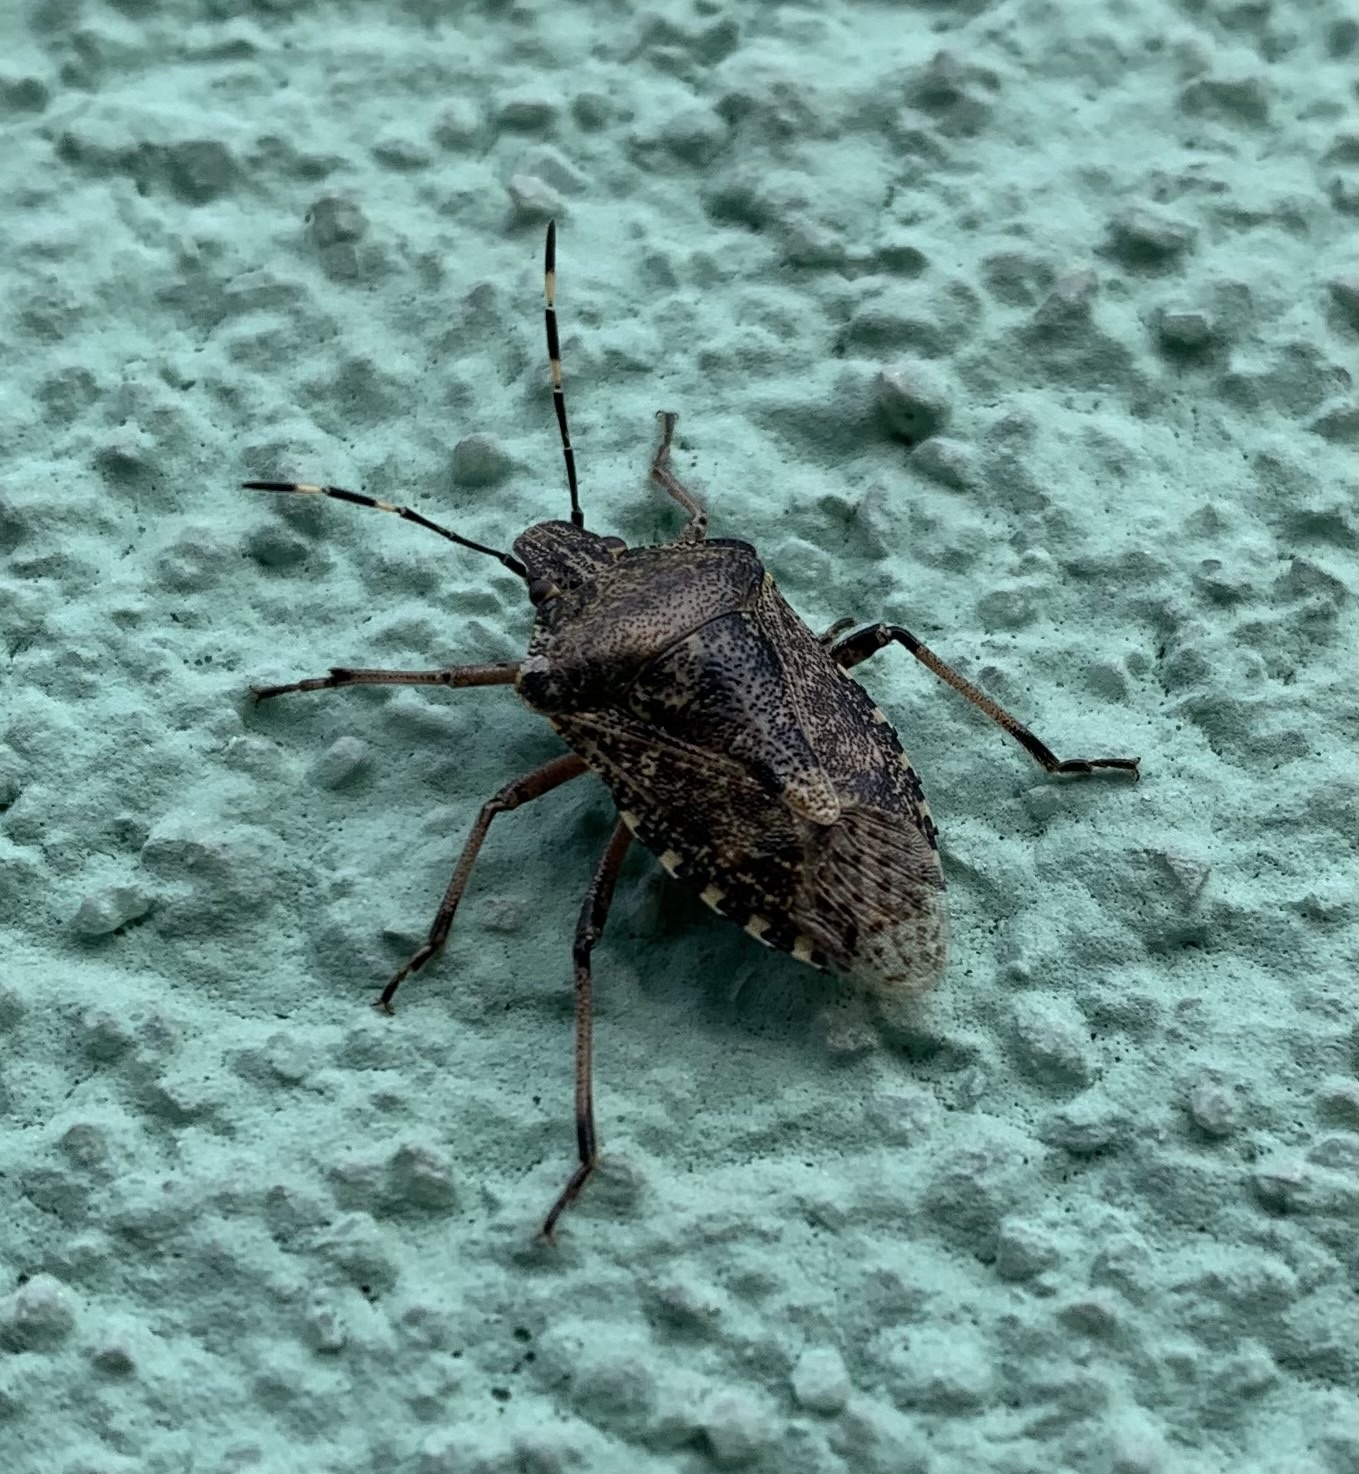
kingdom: Animalia
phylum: Arthropoda
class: Insecta
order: Hemiptera
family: Pentatomidae
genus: Rhaphigaster
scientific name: Rhaphigaster nebulosa
